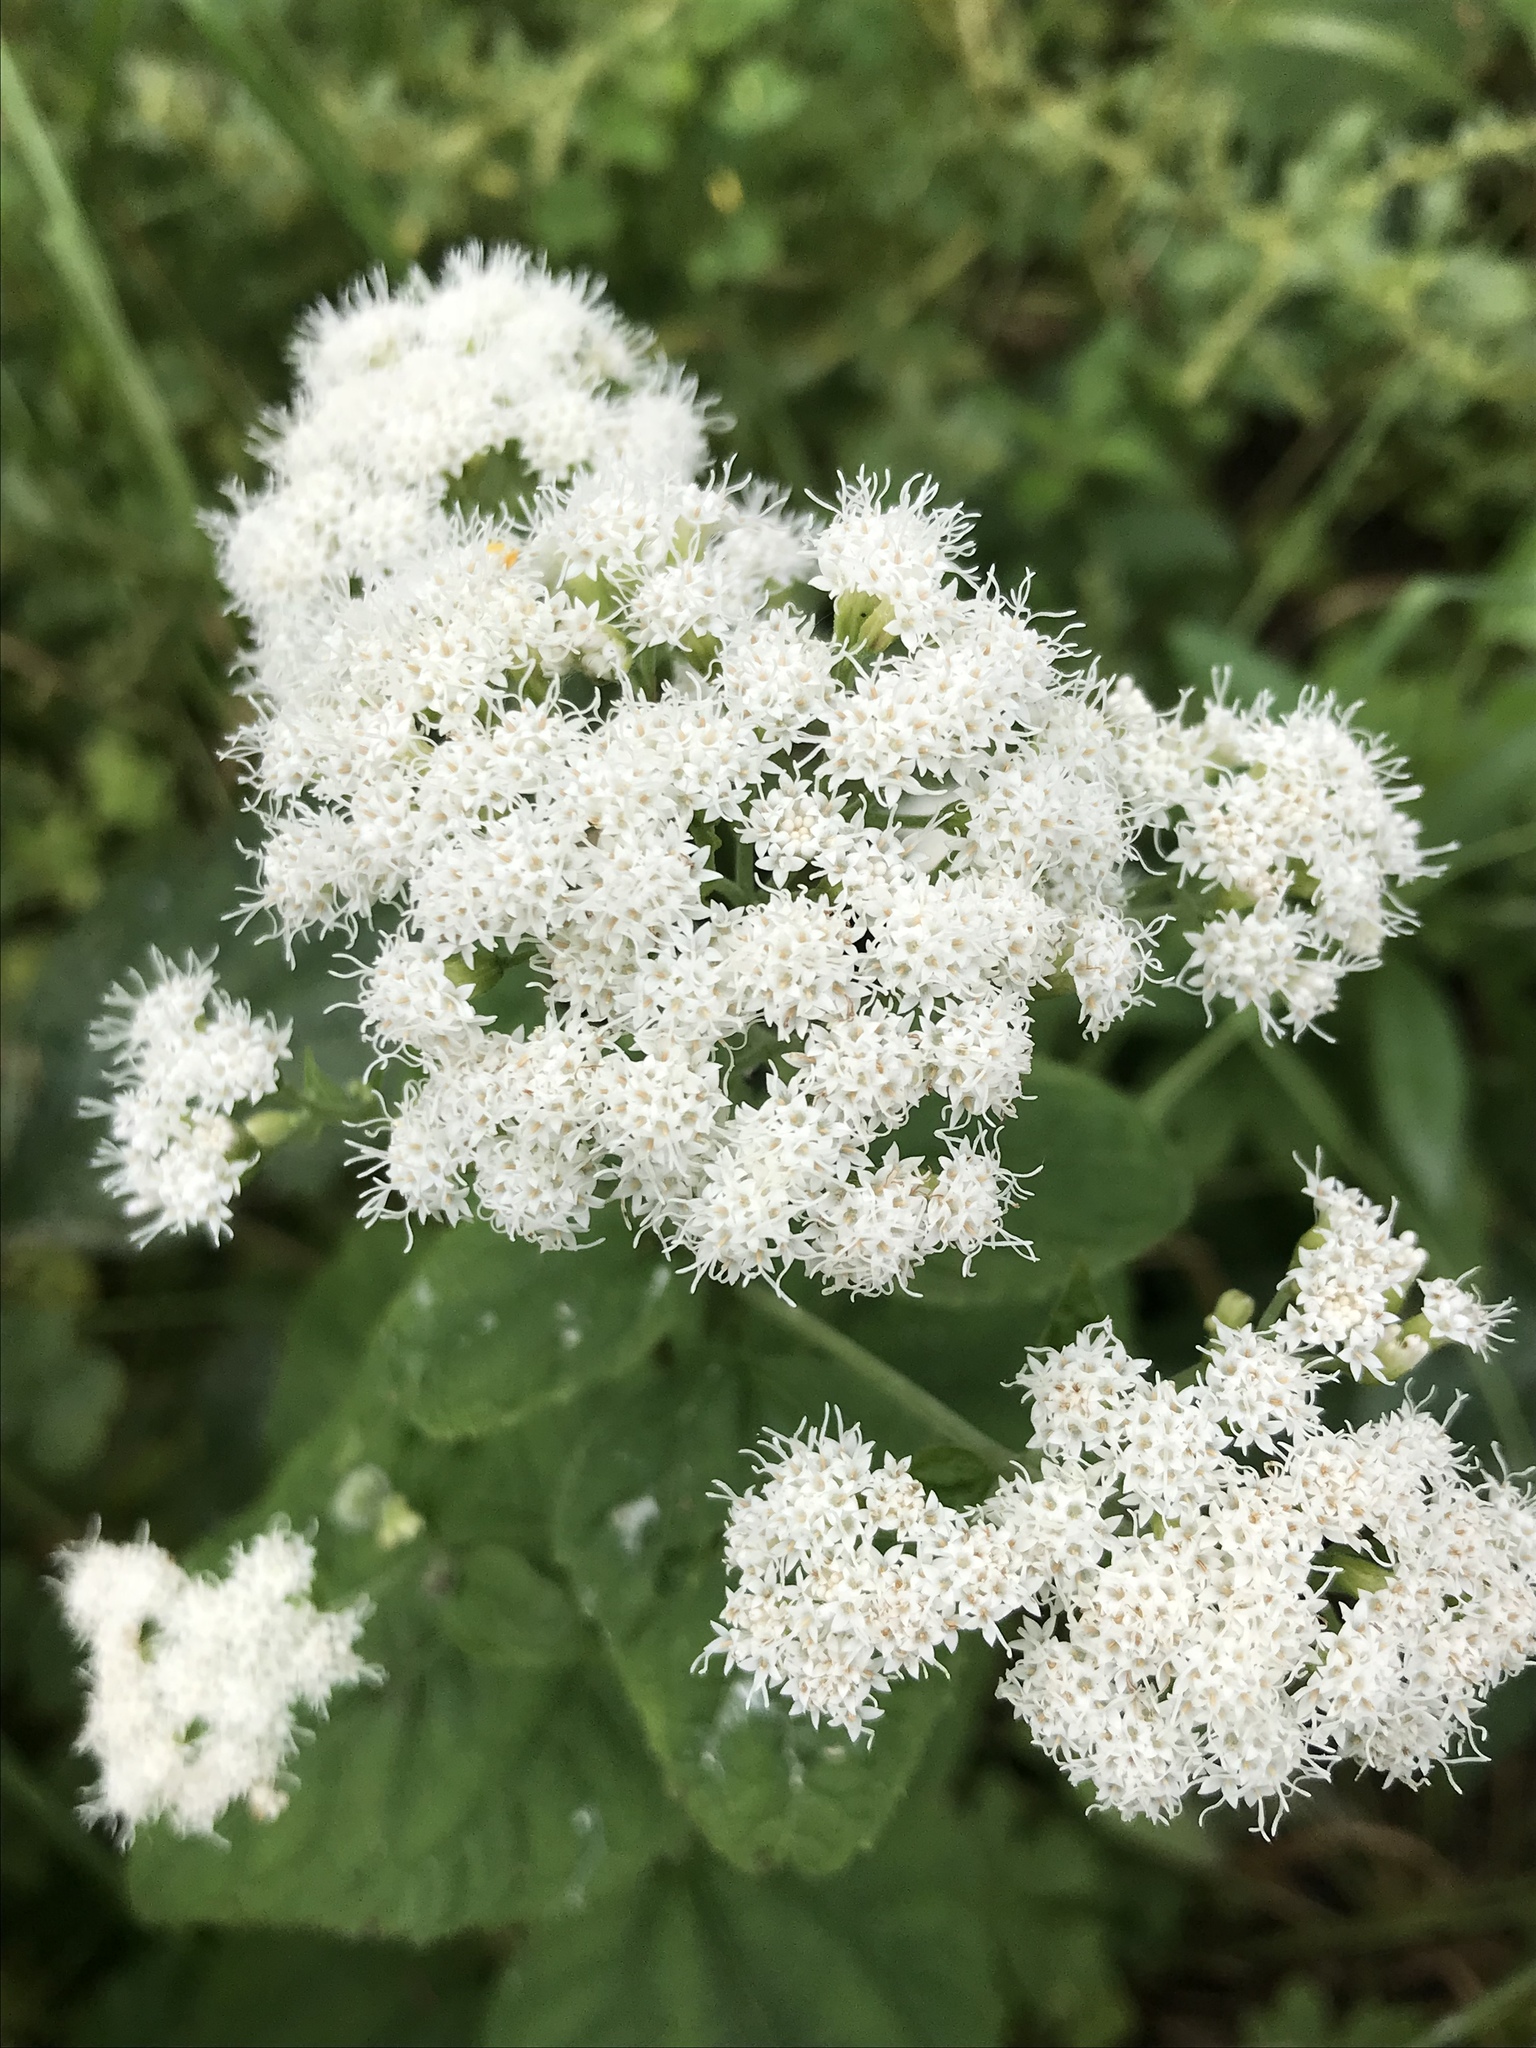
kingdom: Plantae
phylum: Tracheophyta
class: Magnoliopsida
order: Asterales
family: Asteraceae
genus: Ageratina
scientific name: Ageratina altissima
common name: White snakeroot
